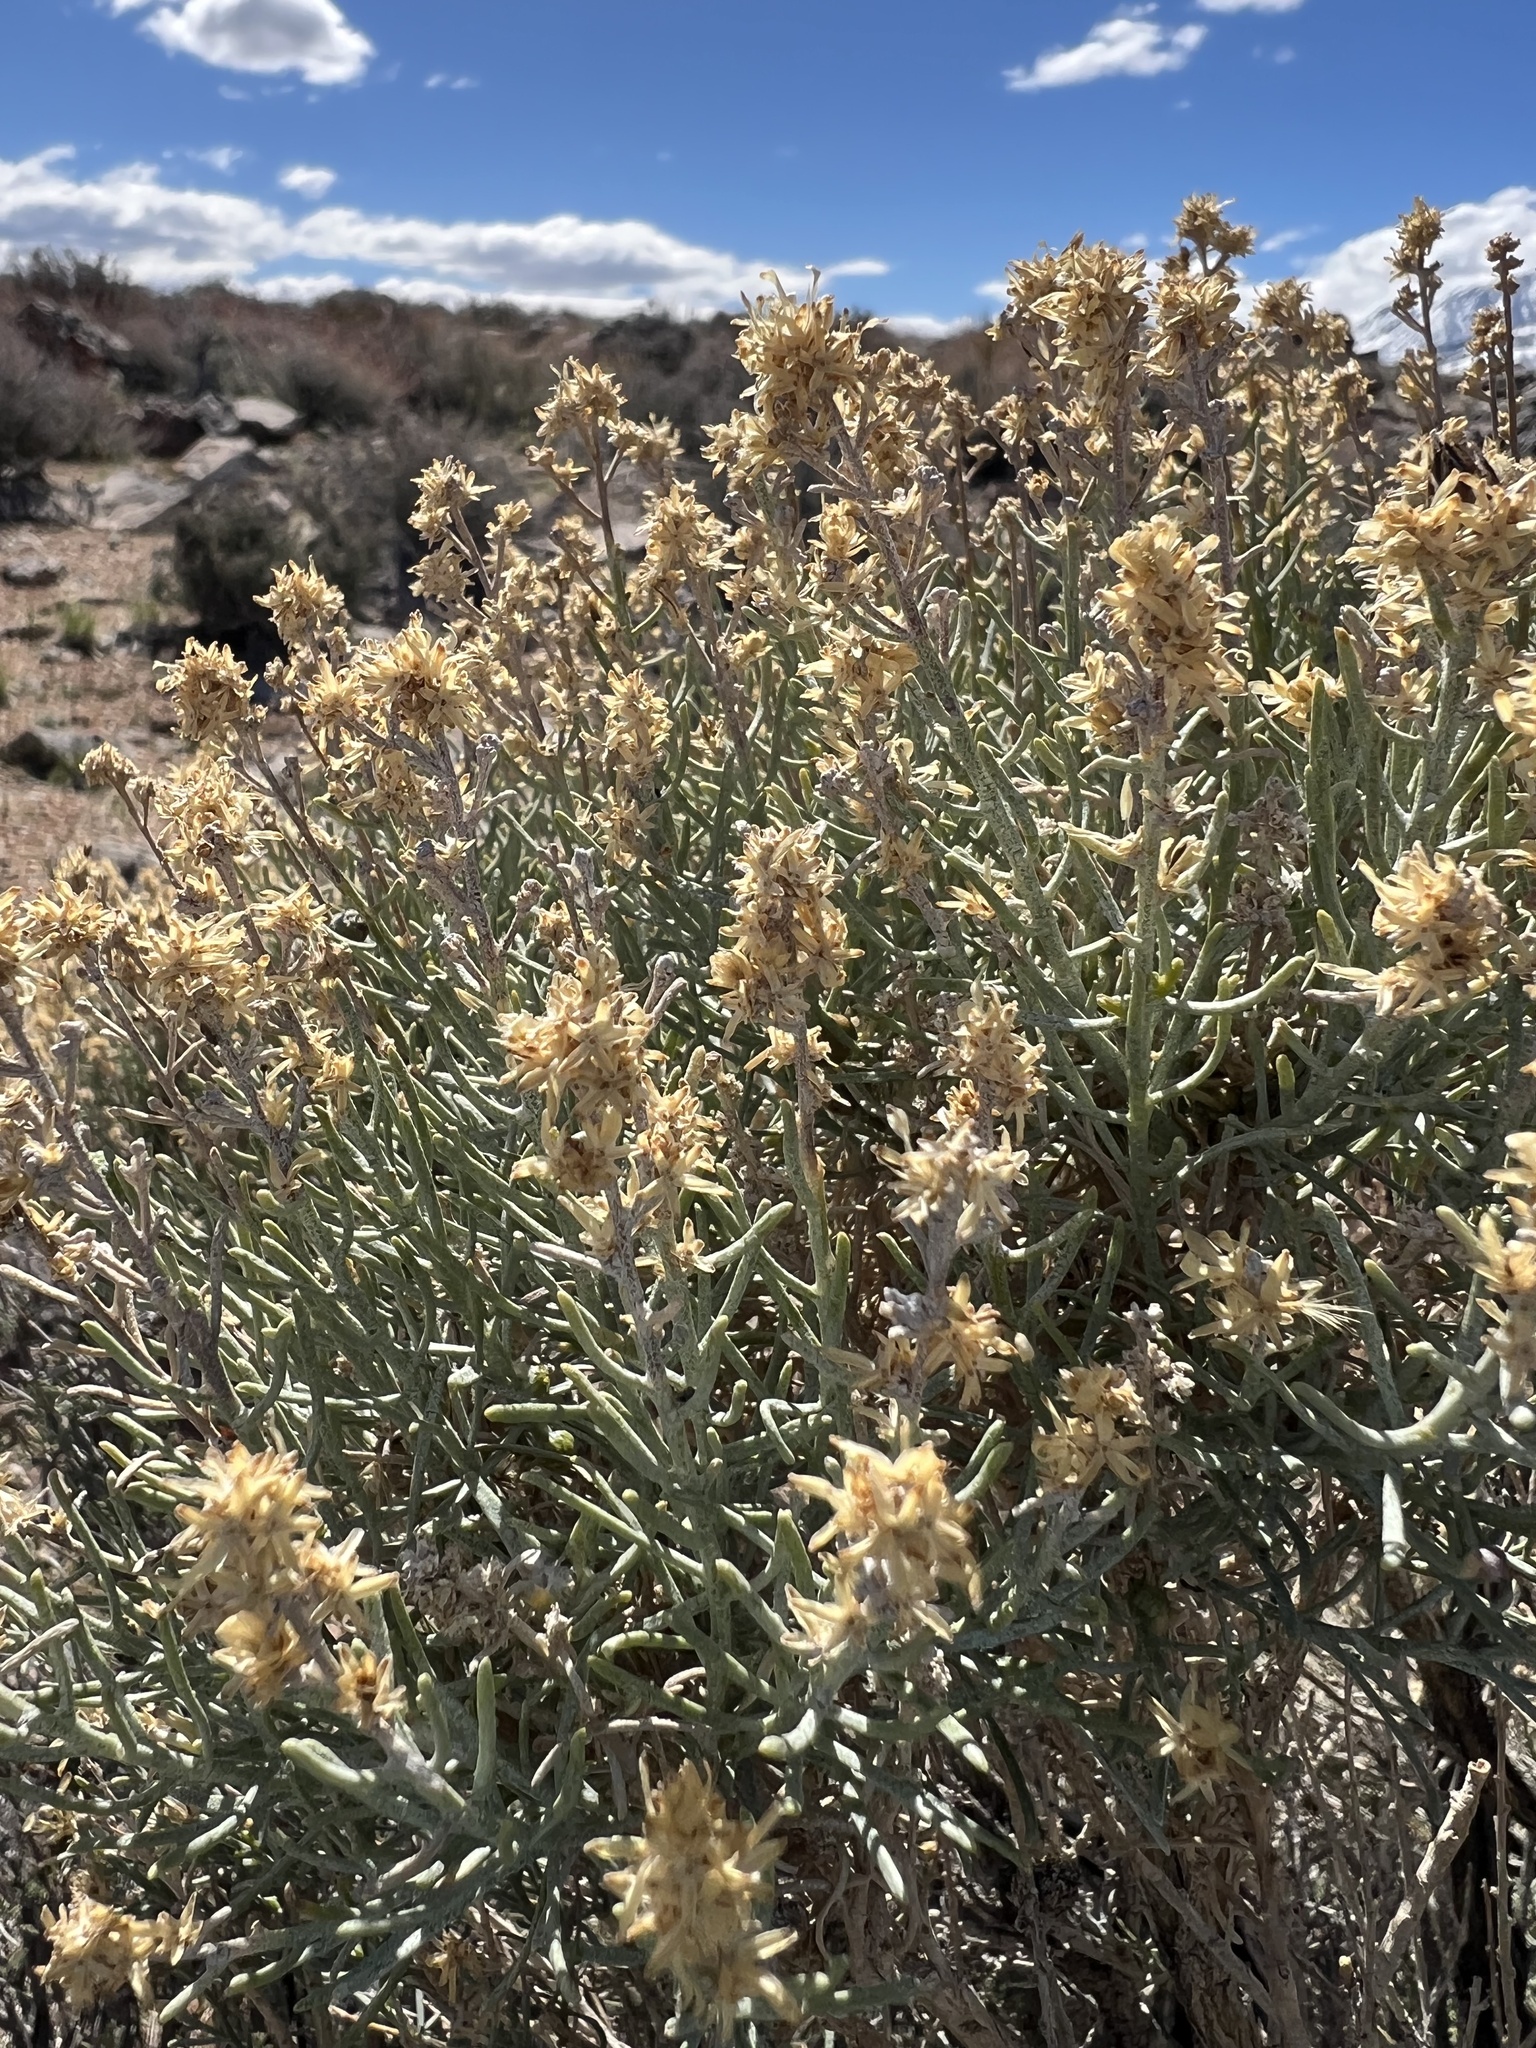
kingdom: Plantae
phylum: Tracheophyta
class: Magnoliopsida
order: Asterales
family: Asteraceae
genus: Ericameria
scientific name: Ericameria teretifolia
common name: Round-leaf rabbitbrush
